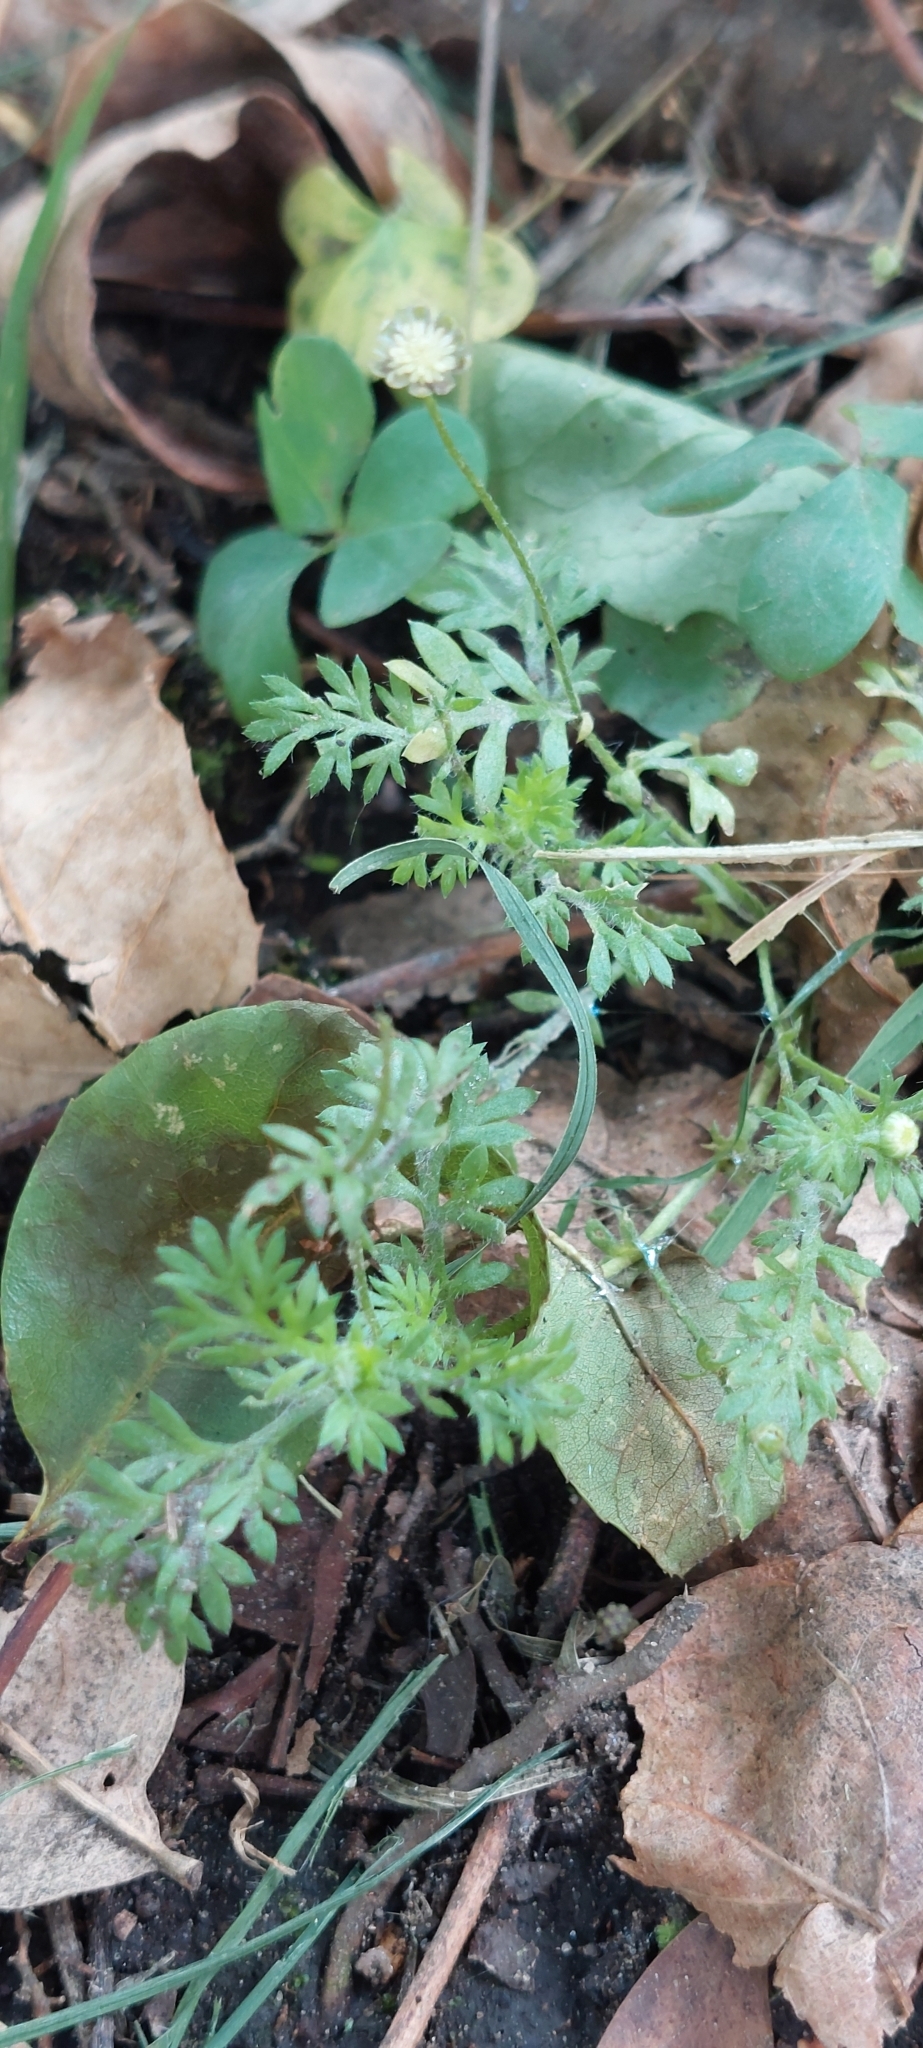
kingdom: Plantae
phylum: Tracheophyta
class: Magnoliopsida
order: Asterales
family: Asteraceae
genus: Cotula
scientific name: Cotula australis
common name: Australian waterbuttons
